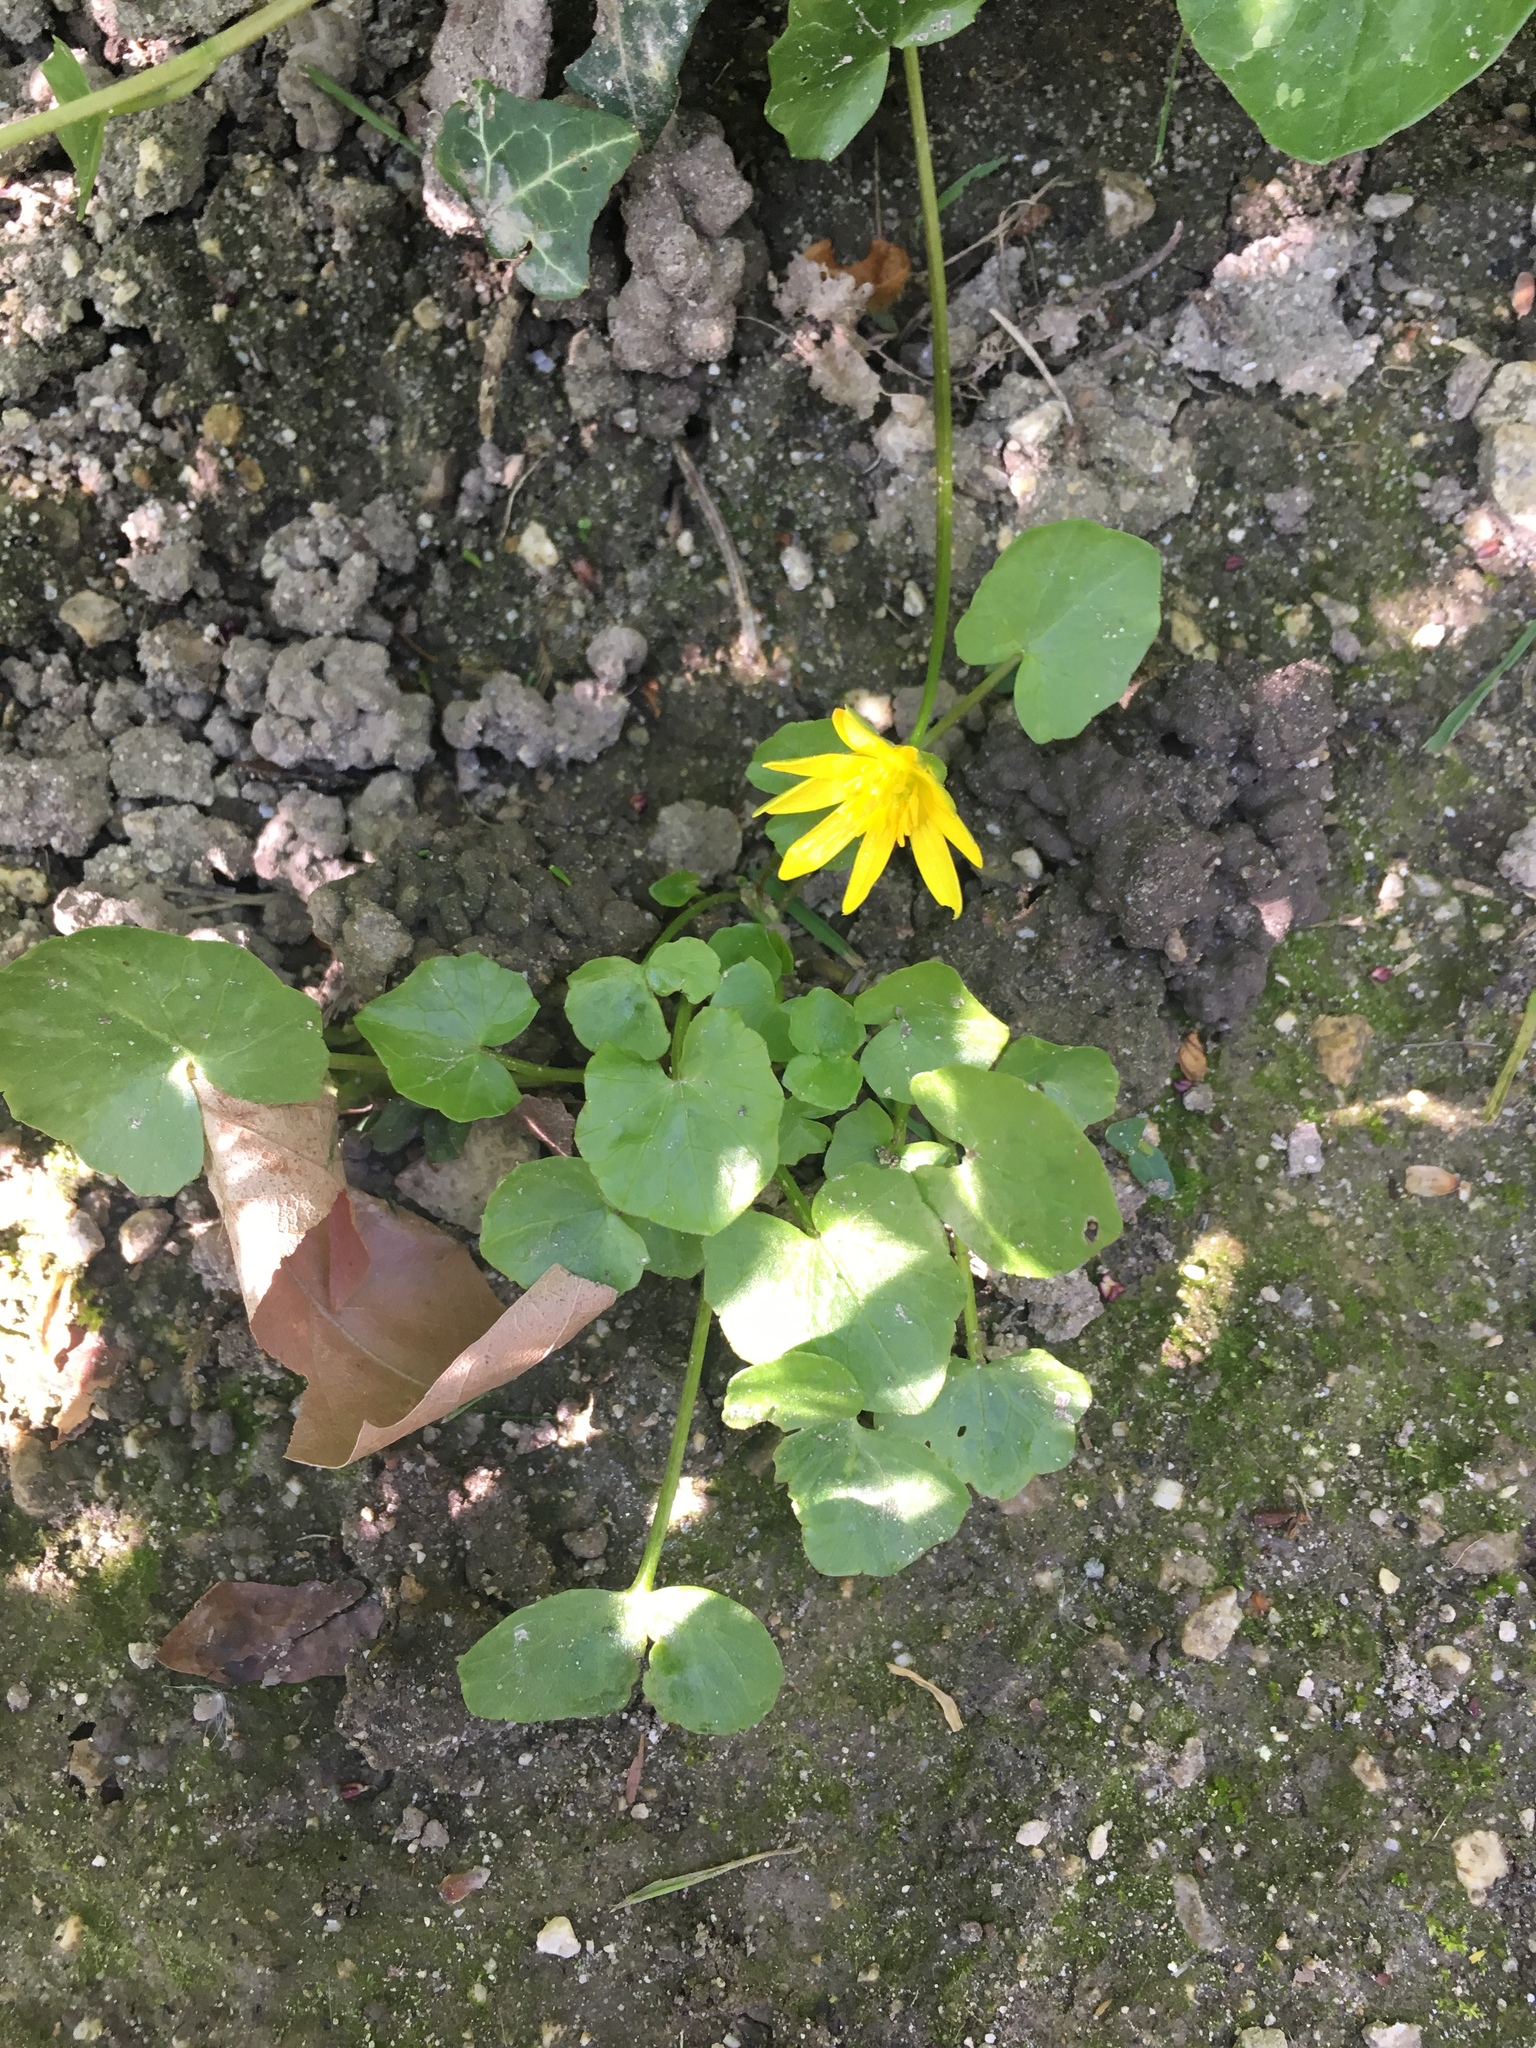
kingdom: Plantae
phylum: Tracheophyta
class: Magnoliopsida
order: Ranunculales
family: Ranunculaceae
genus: Ficaria
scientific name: Ficaria verna
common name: Lesser celandine
